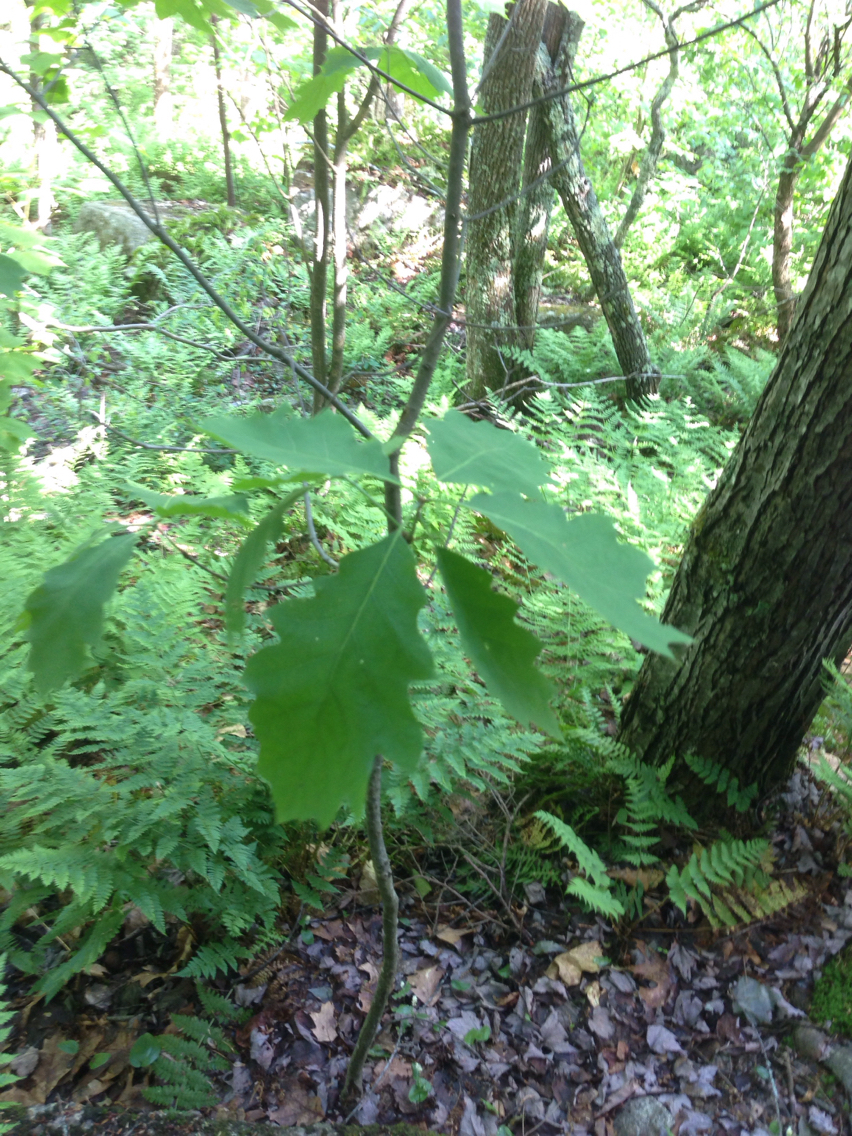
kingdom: Plantae
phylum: Tracheophyta
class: Magnoliopsida
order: Fagales
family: Fagaceae
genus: Quercus
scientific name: Quercus rubra
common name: Red oak
